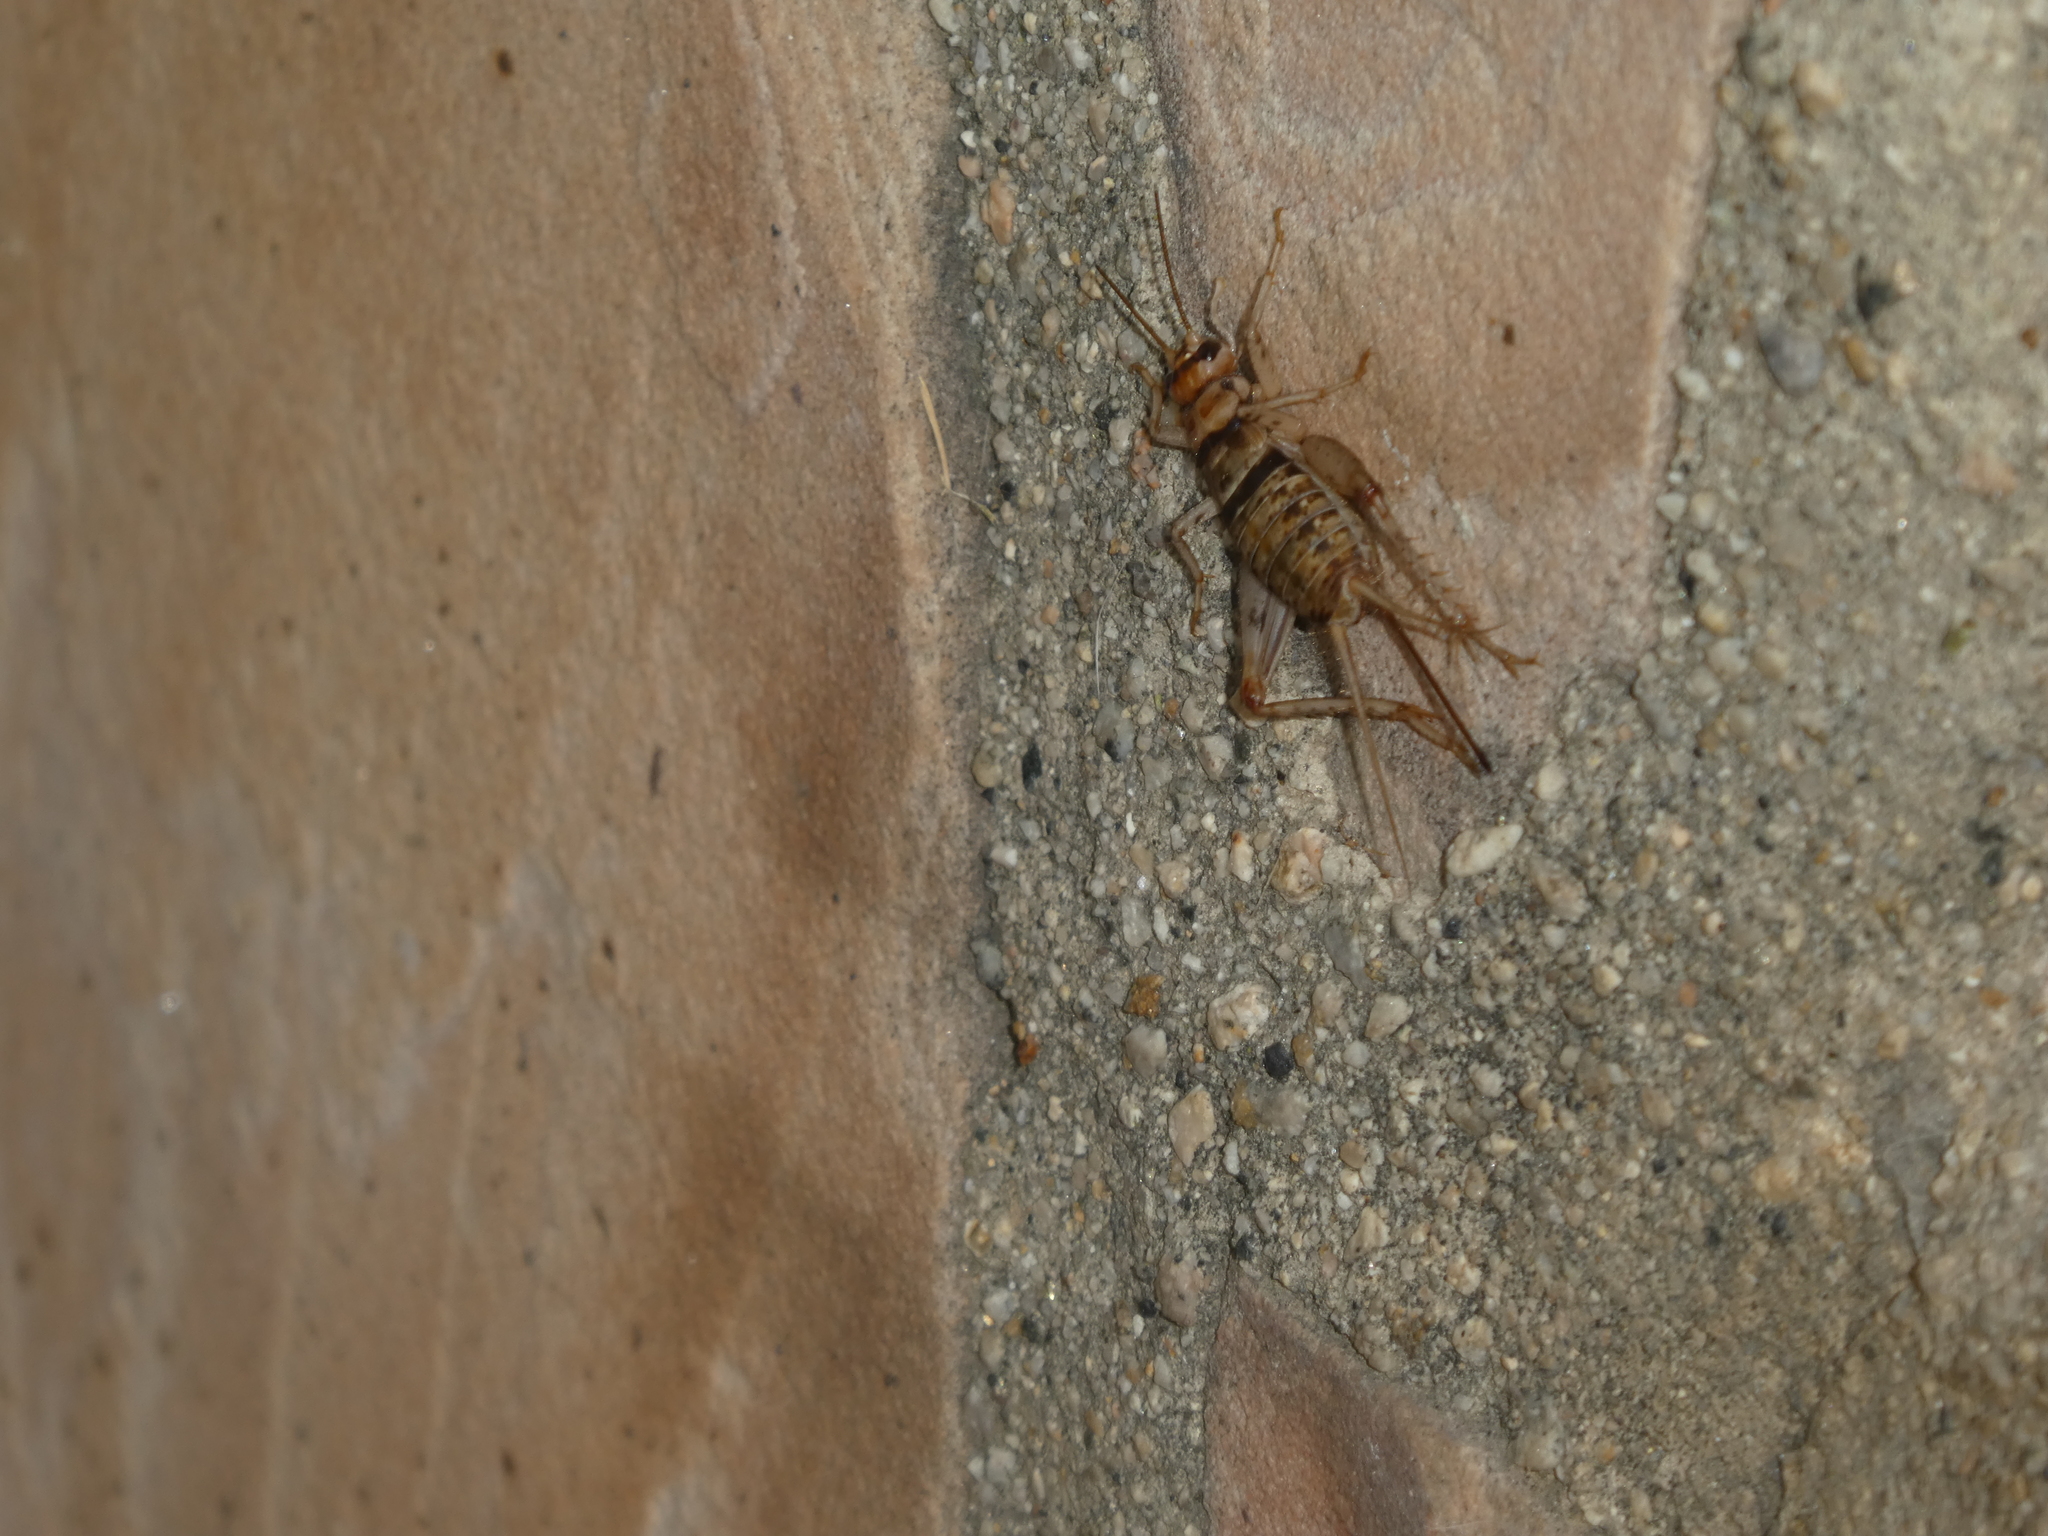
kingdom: Animalia
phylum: Arthropoda
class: Insecta
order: Orthoptera
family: Gryllidae
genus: Gryllodes
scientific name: Gryllodes sigillatus
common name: Tropical house cricket
